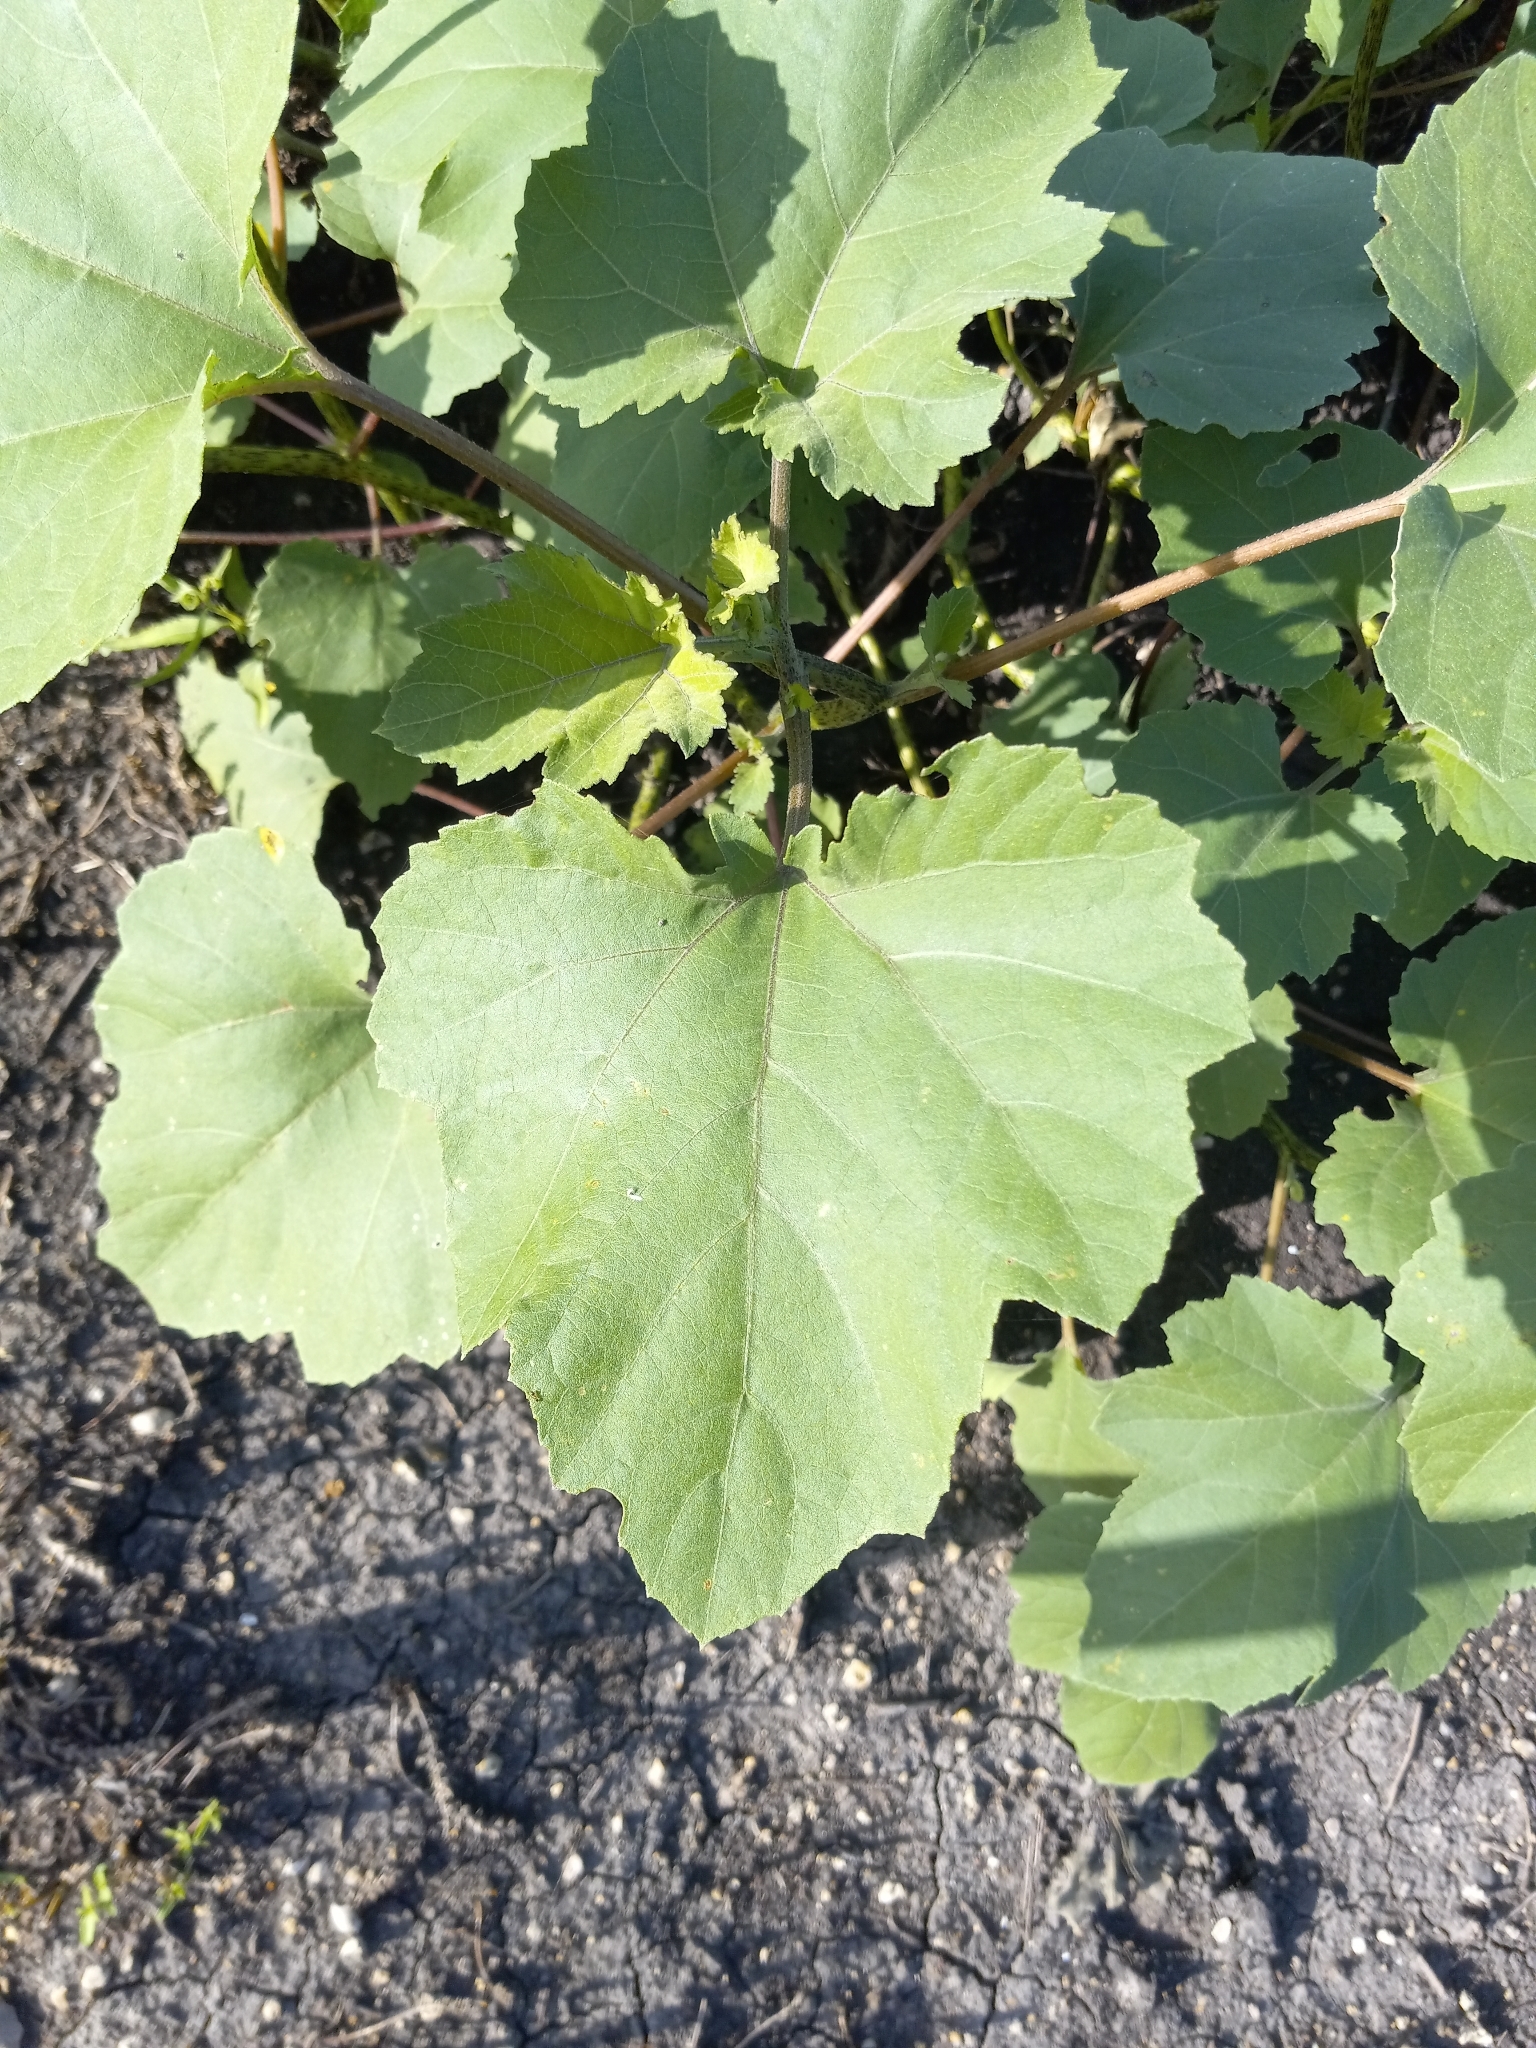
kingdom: Plantae
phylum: Tracheophyta
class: Magnoliopsida
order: Asterales
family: Asteraceae
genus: Xanthium
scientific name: Xanthium strumarium
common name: Rough cocklebur
